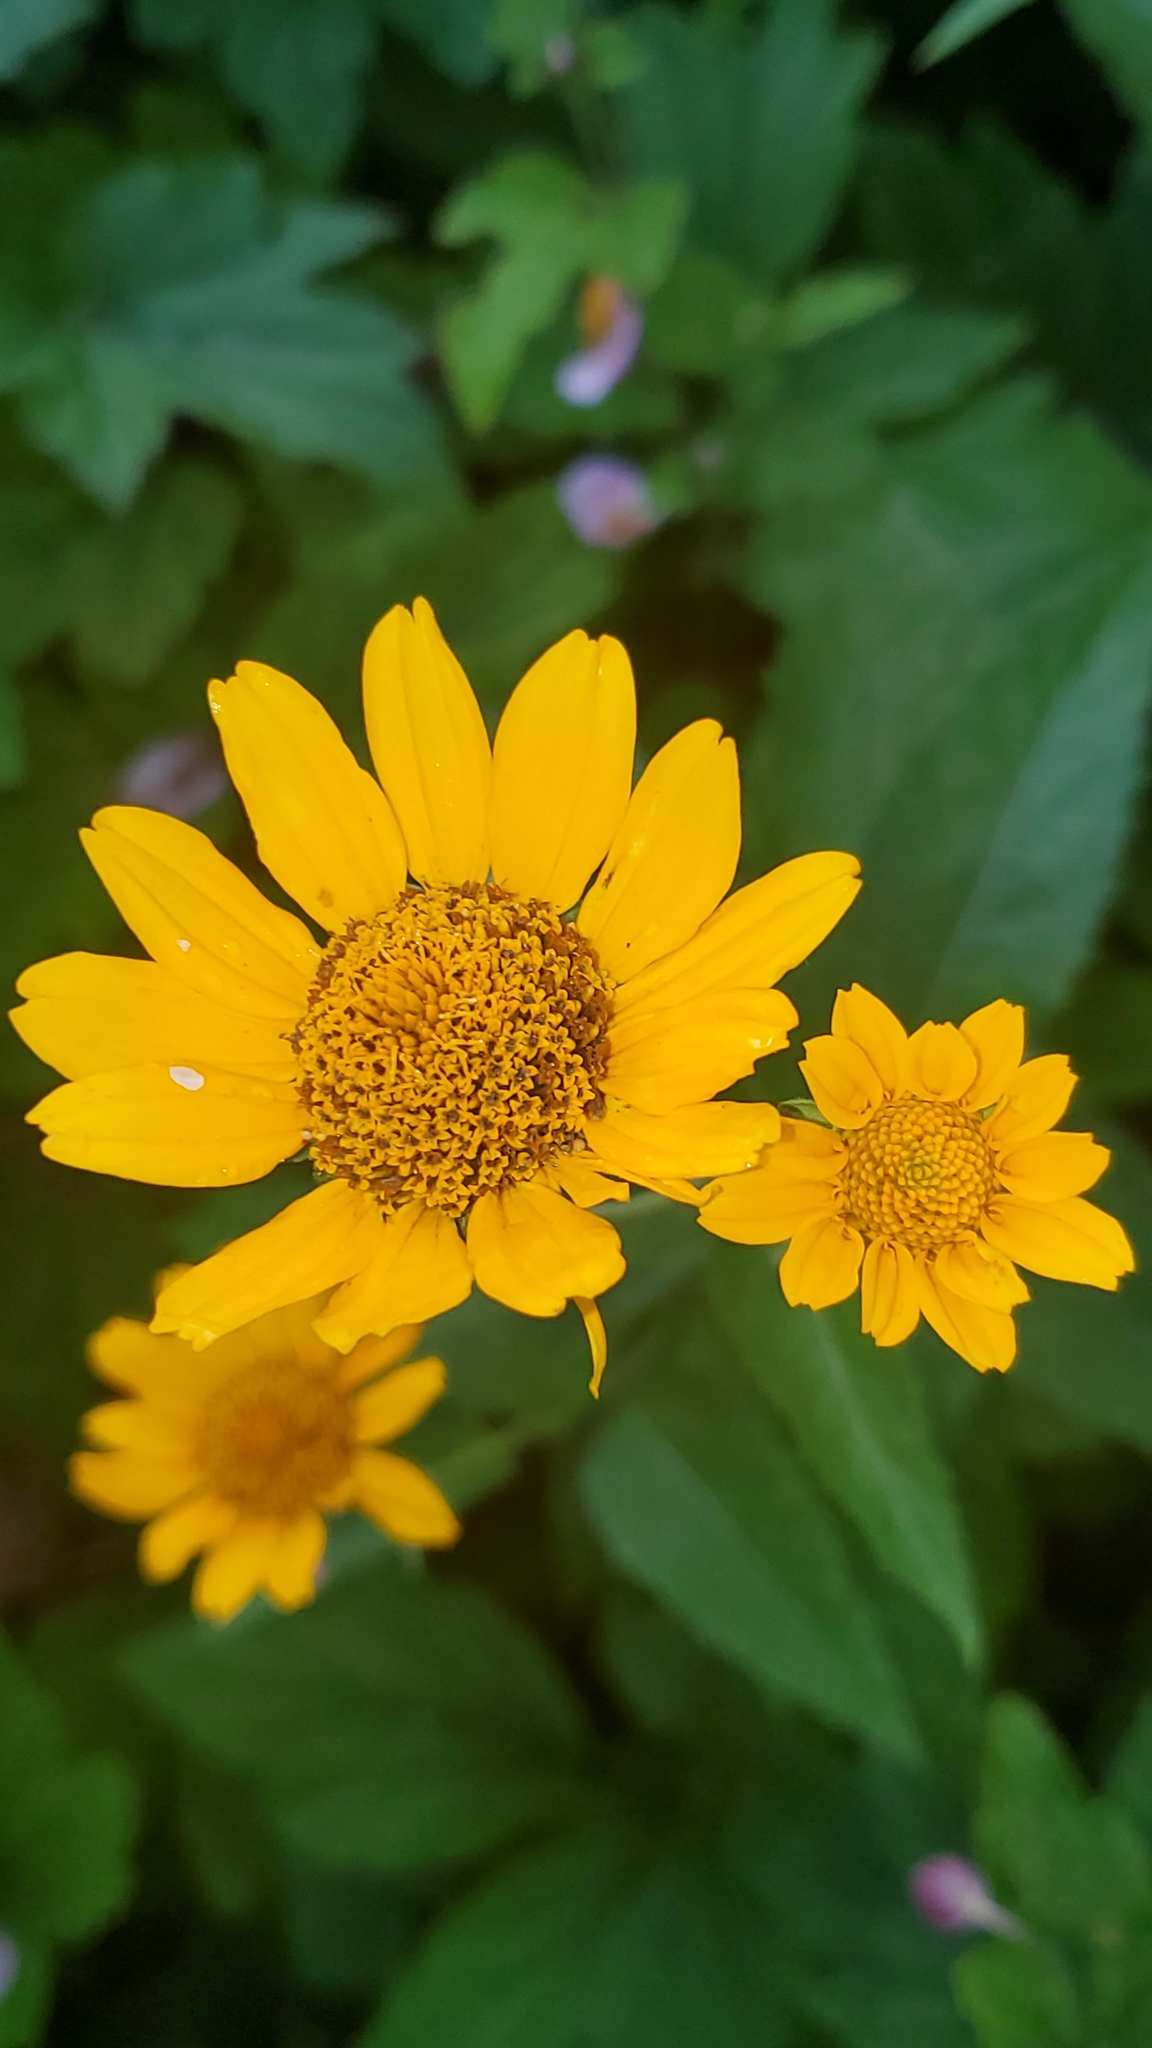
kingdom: Plantae
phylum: Tracheophyta
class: Magnoliopsida
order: Asterales
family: Asteraceae
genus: Heliopsis
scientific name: Heliopsis helianthoides
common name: False sunflower
